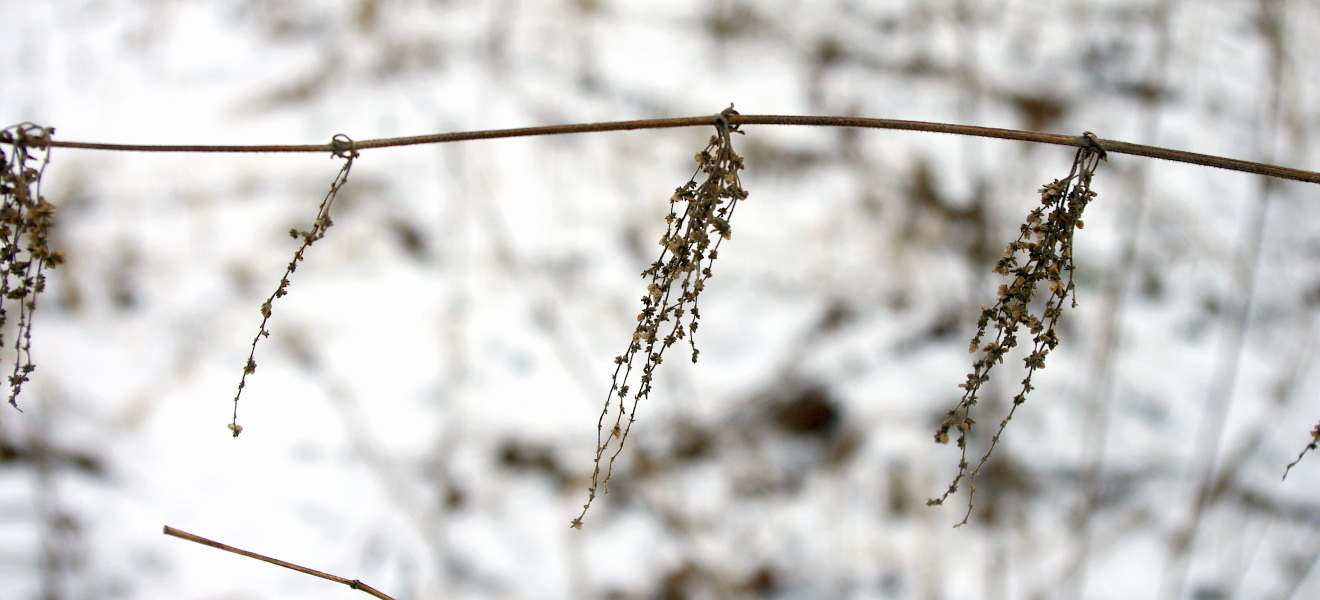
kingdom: Plantae
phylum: Tracheophyta
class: Magnoliopsida
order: Rosales
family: Urticaceae
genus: Urtica
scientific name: Urtica dioica
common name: Common nettle
